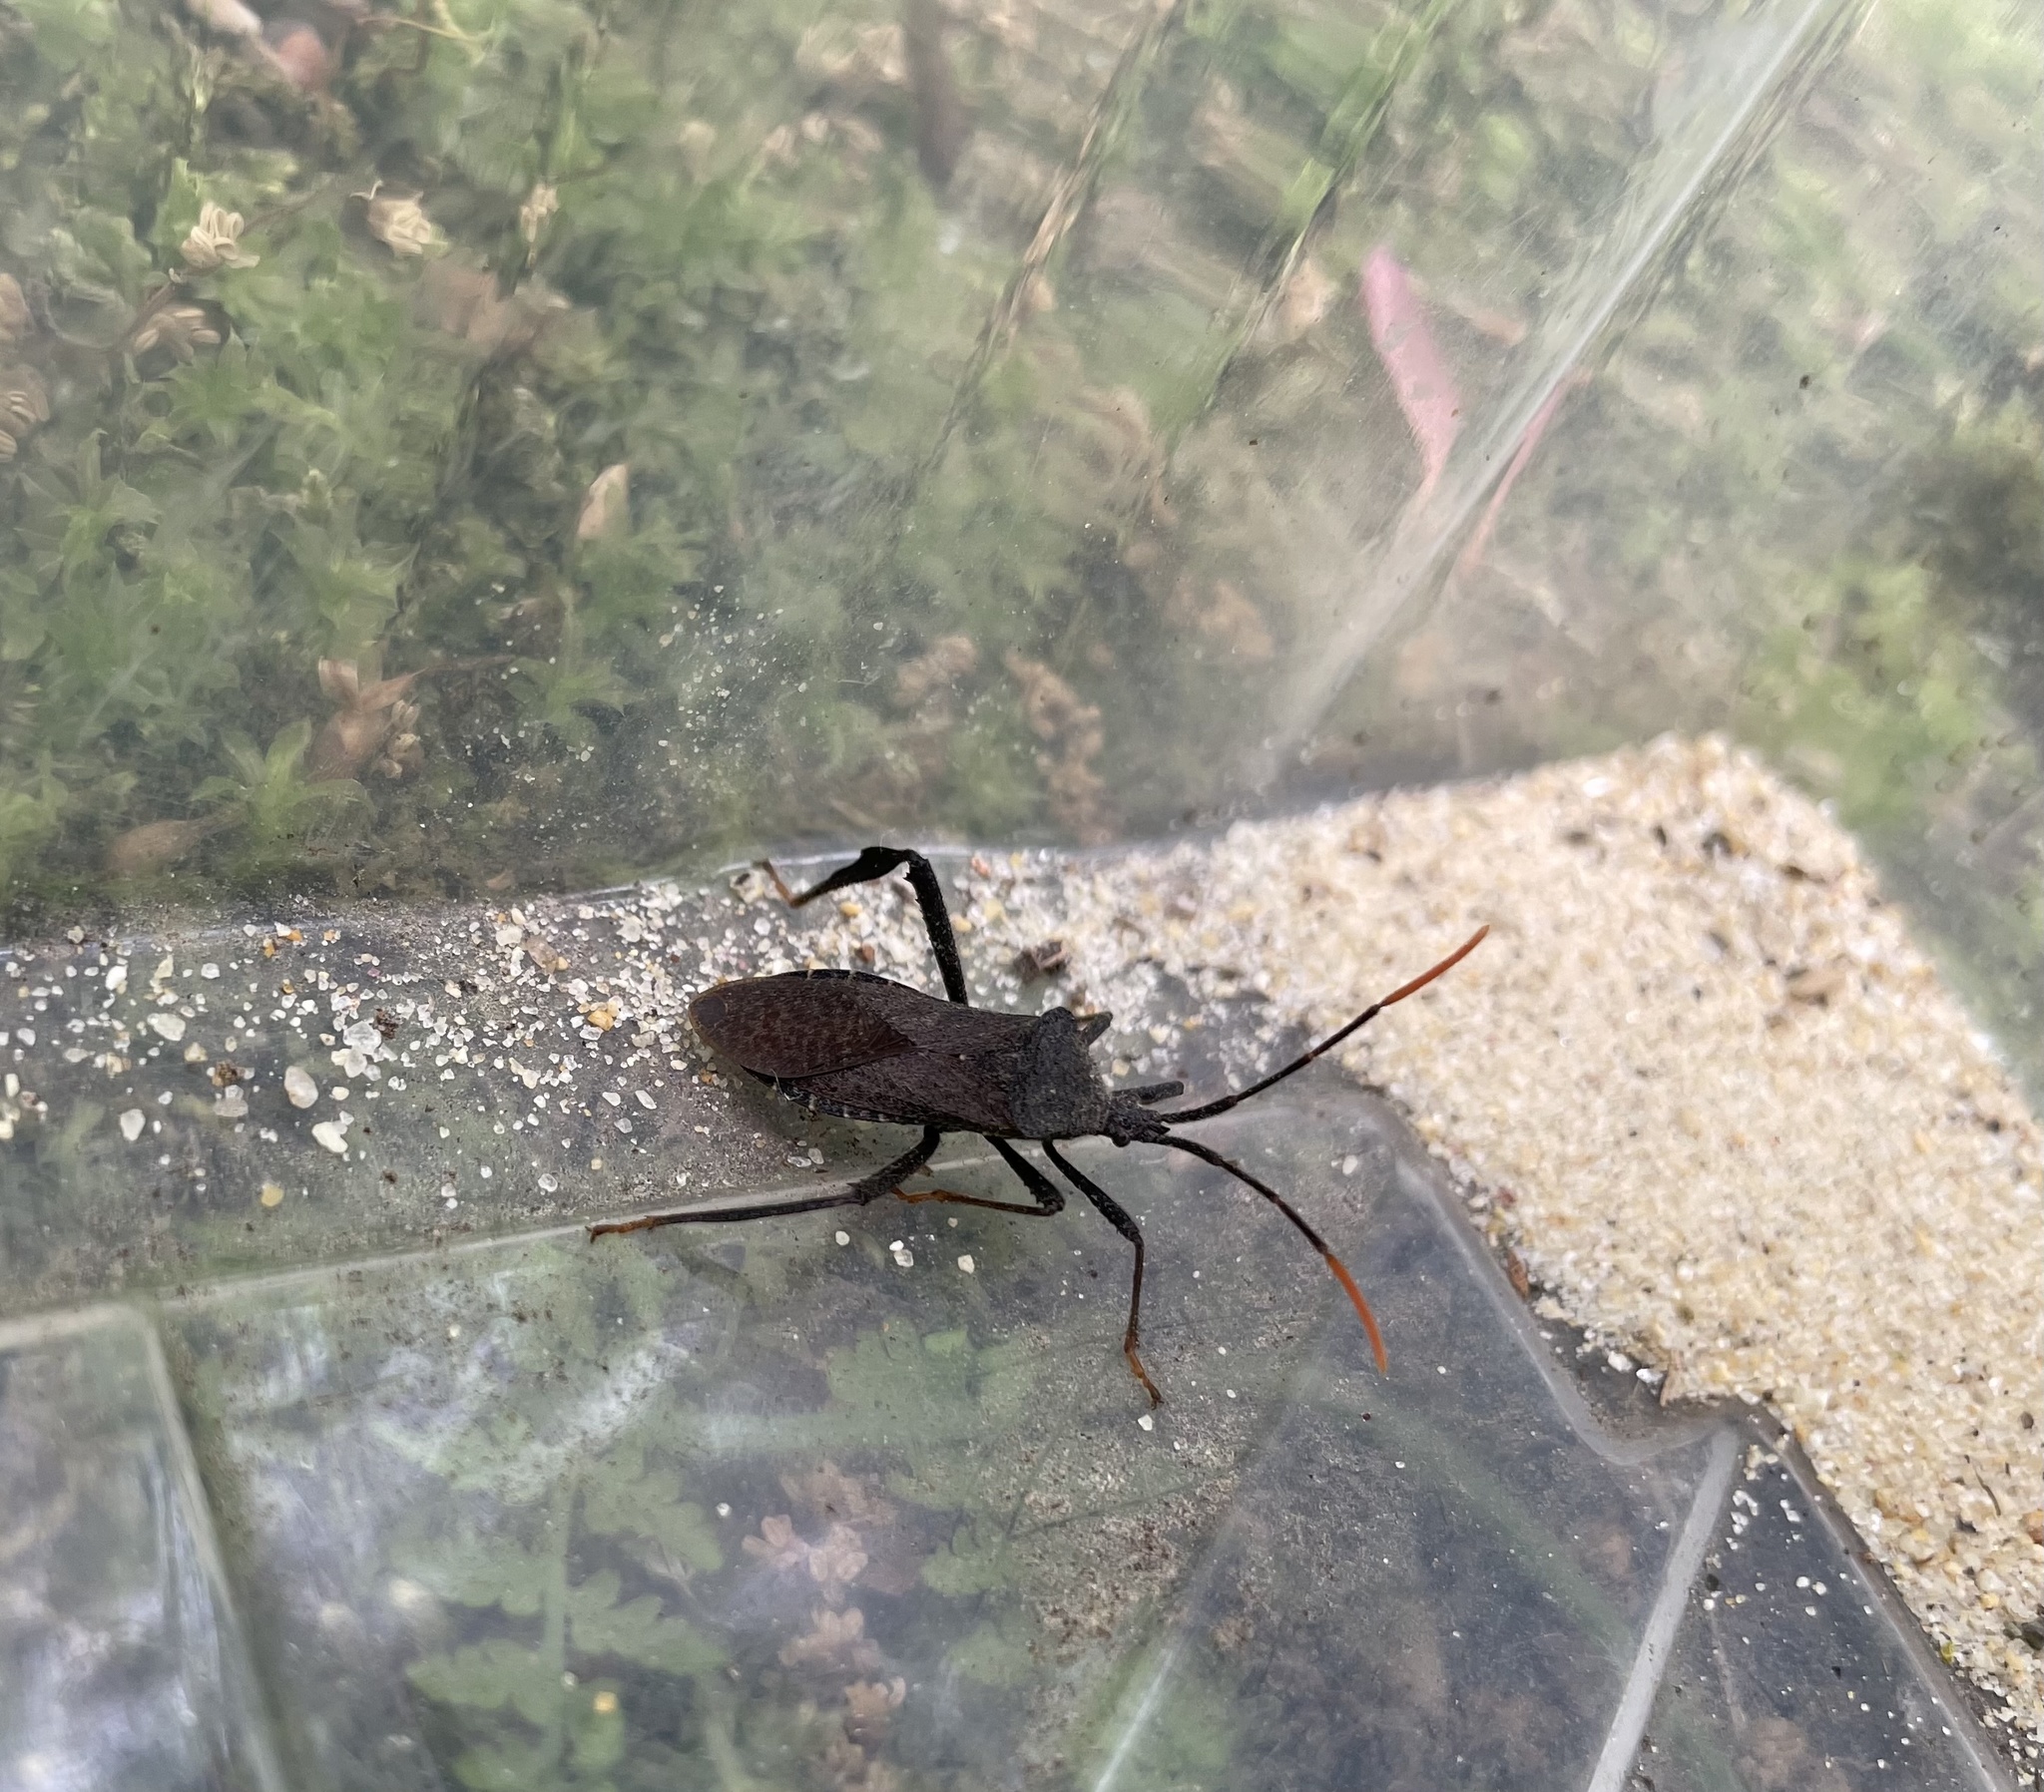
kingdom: Animalia
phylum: Arthropoda
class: Insecta
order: Hemiptera
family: Coreidae
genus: Acanthocephala
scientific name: Acanthocephala terminalis
